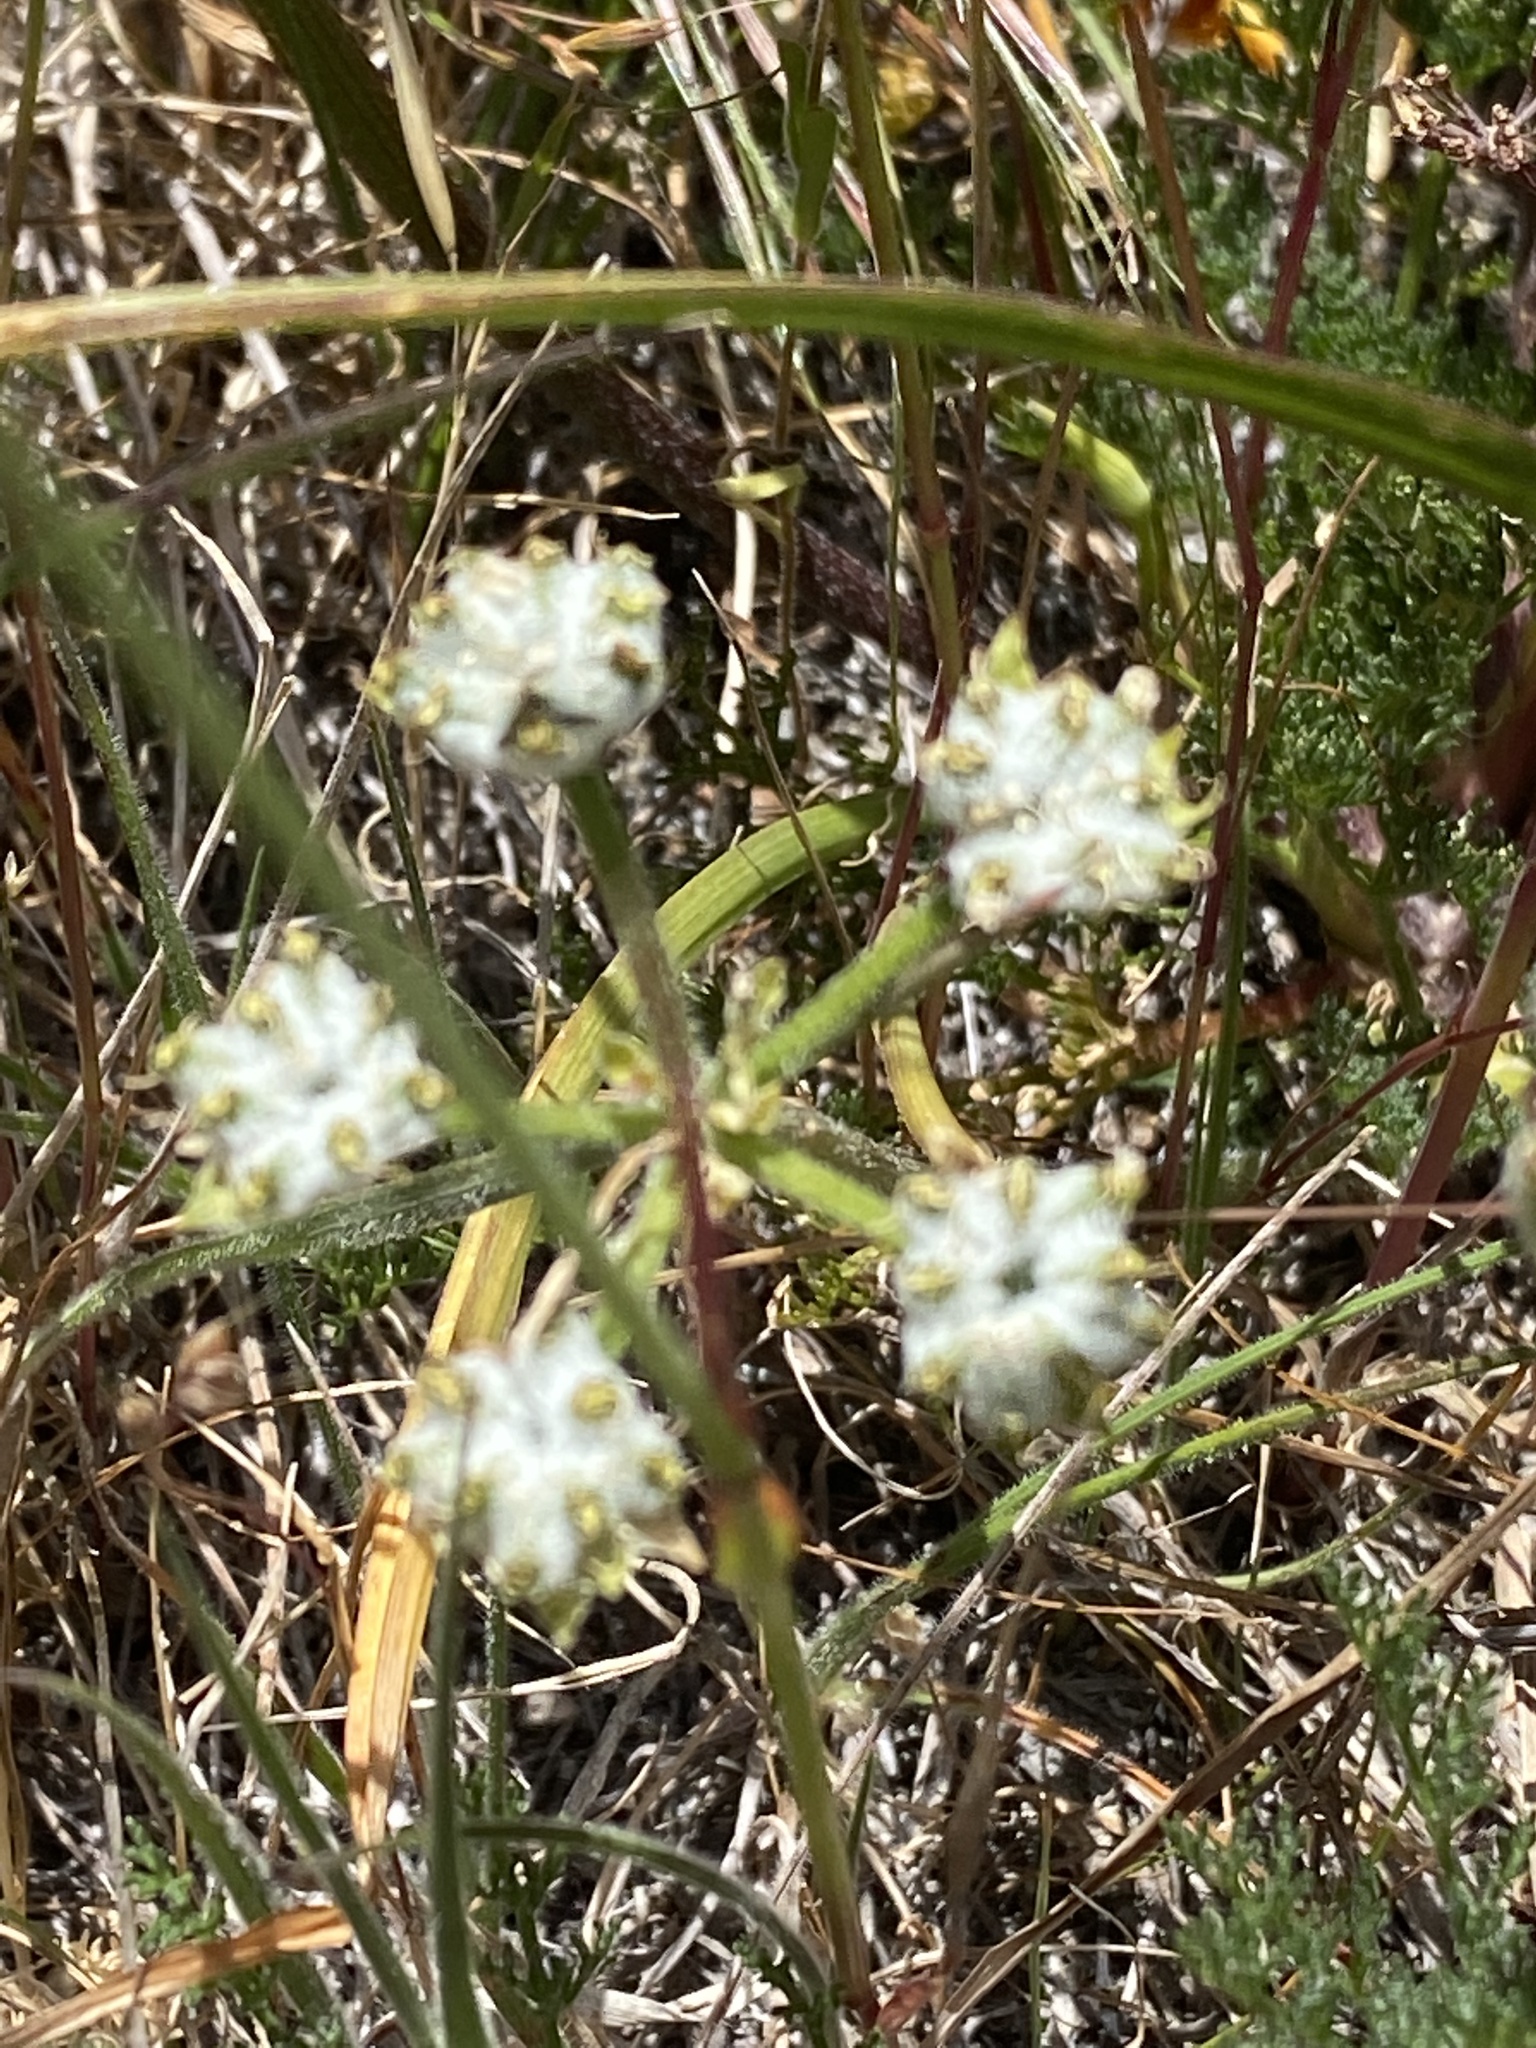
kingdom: Plantae
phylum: Tracheophyta
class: Magnoliopsida
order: Apiales
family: Apiaceae
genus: Lomatium
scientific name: Lomatium dasycarpum
